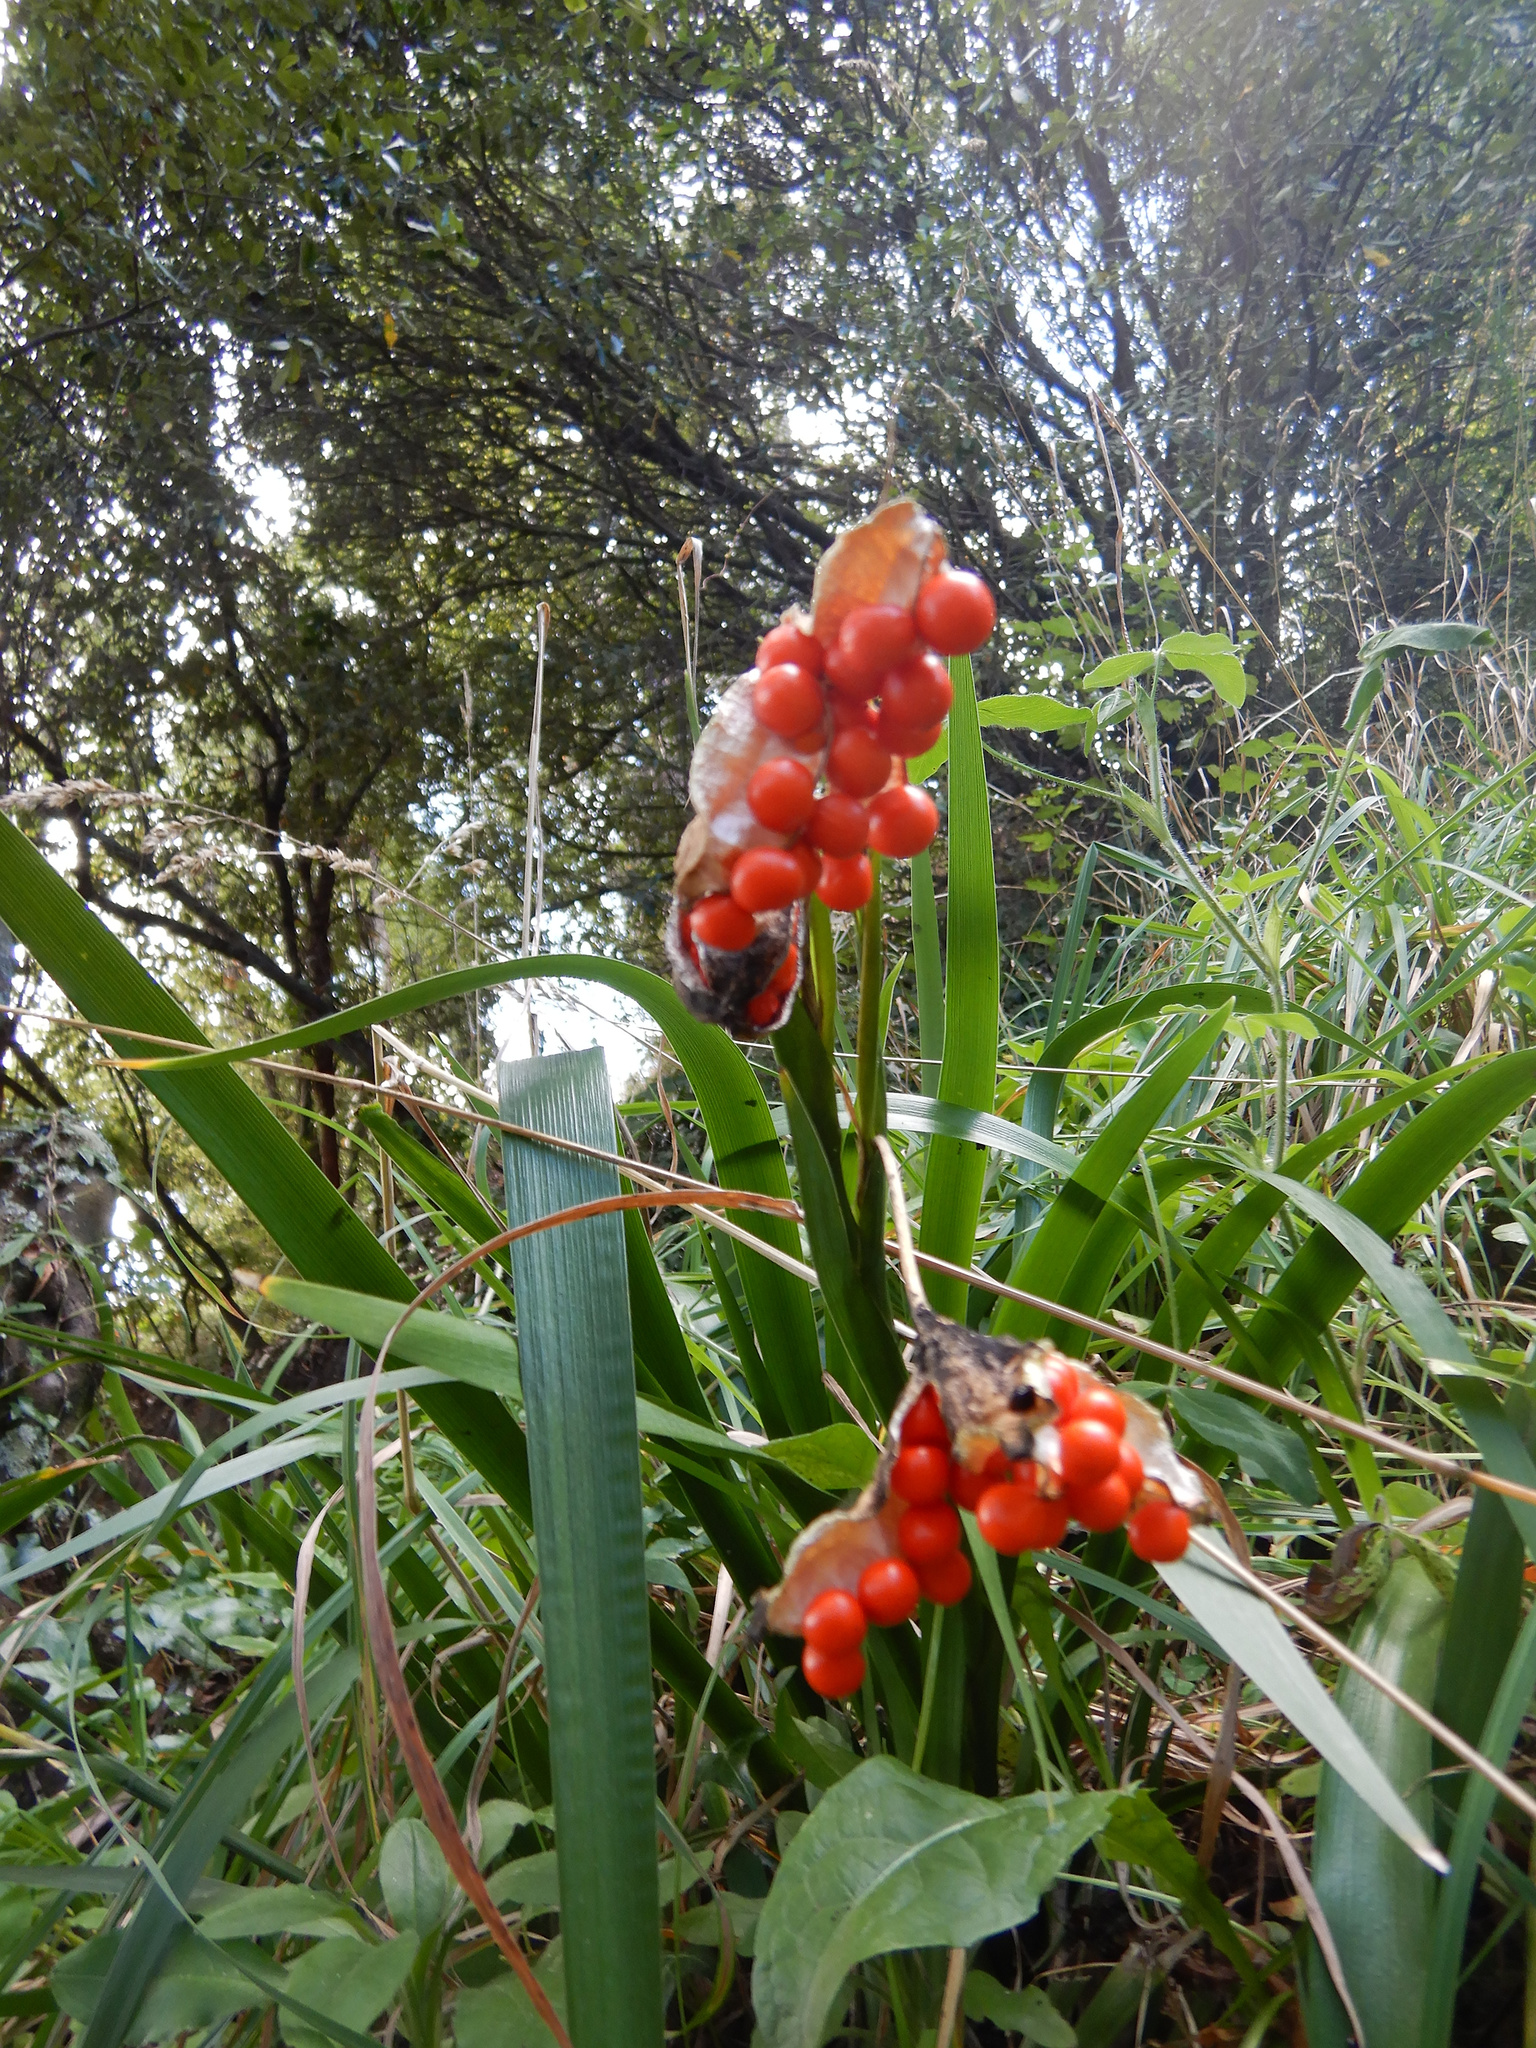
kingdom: Plantae
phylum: Tracheophyta
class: Liliopsida
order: Asparagales
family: Iridaceae
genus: Iris
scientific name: Iris foetidissima
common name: Stinking iris
